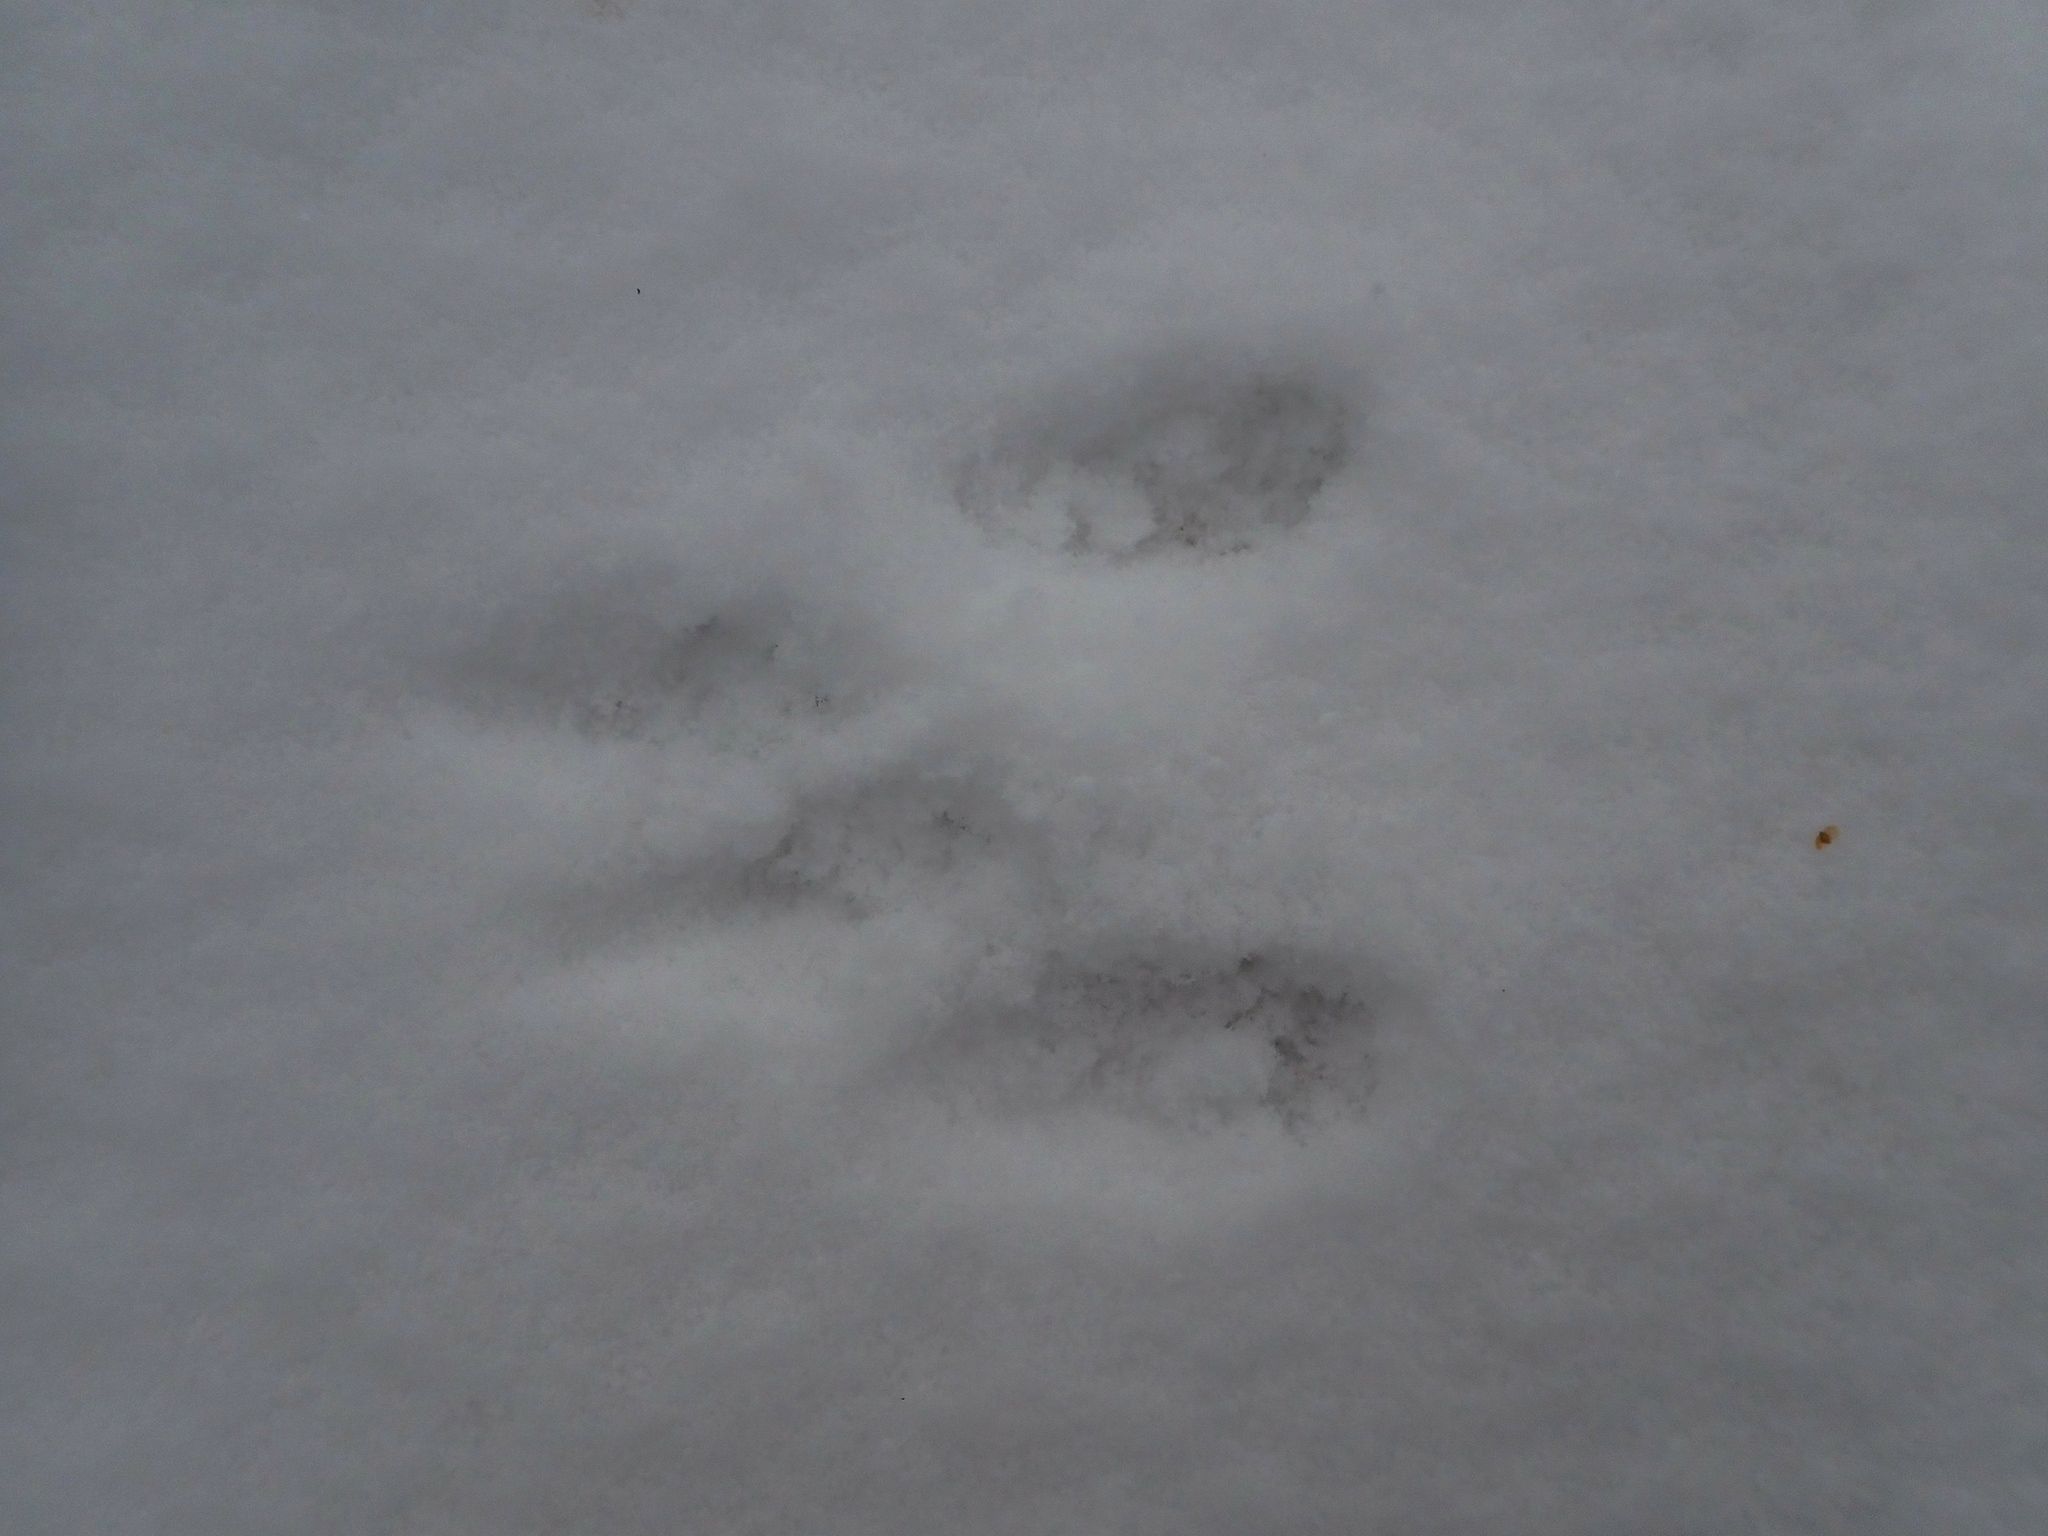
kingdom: Animalia
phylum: Chordata
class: Mammalia
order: Rodentia
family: Sciuridae
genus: Tamiasciurus
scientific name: Tamiasciurus hudsonicus
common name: Red squirrel
